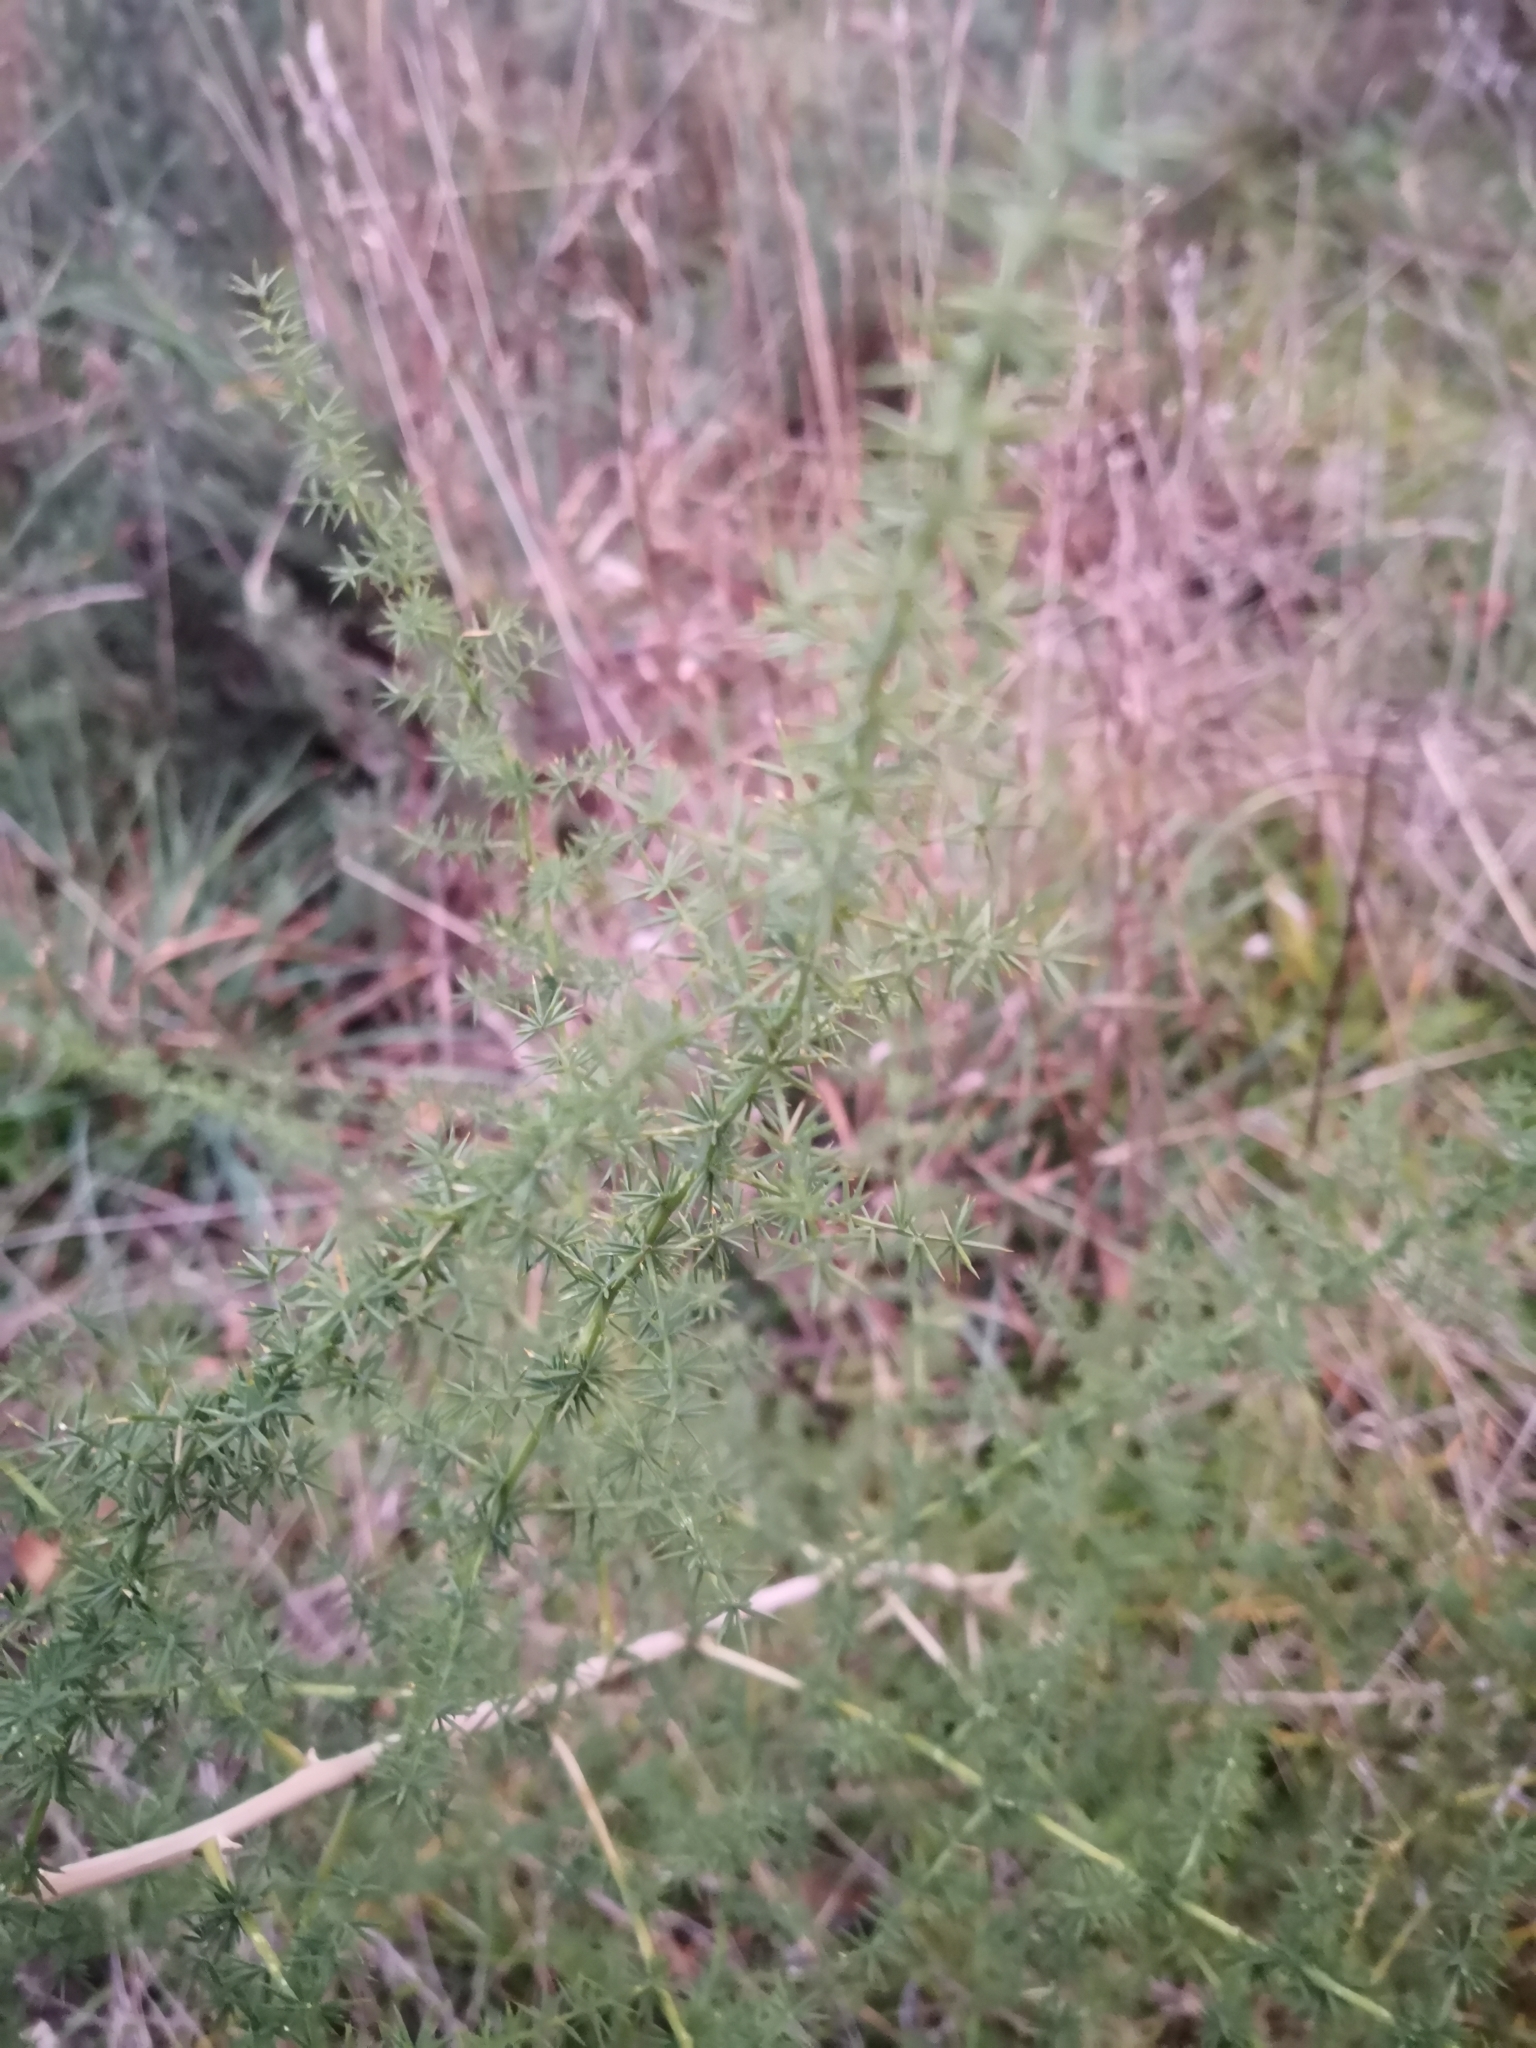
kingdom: Plantae
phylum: Tracheophyta
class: Liliopsida
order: Asparagales
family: Asparagaceae
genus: Asparagus
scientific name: Asparagus acutifolius
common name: Wild asparagus
